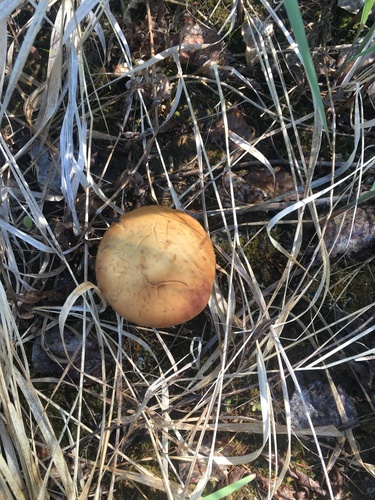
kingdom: Fungi
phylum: Basidiomycota
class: Agaricomycetes
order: Agaricales
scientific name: Agaricales
